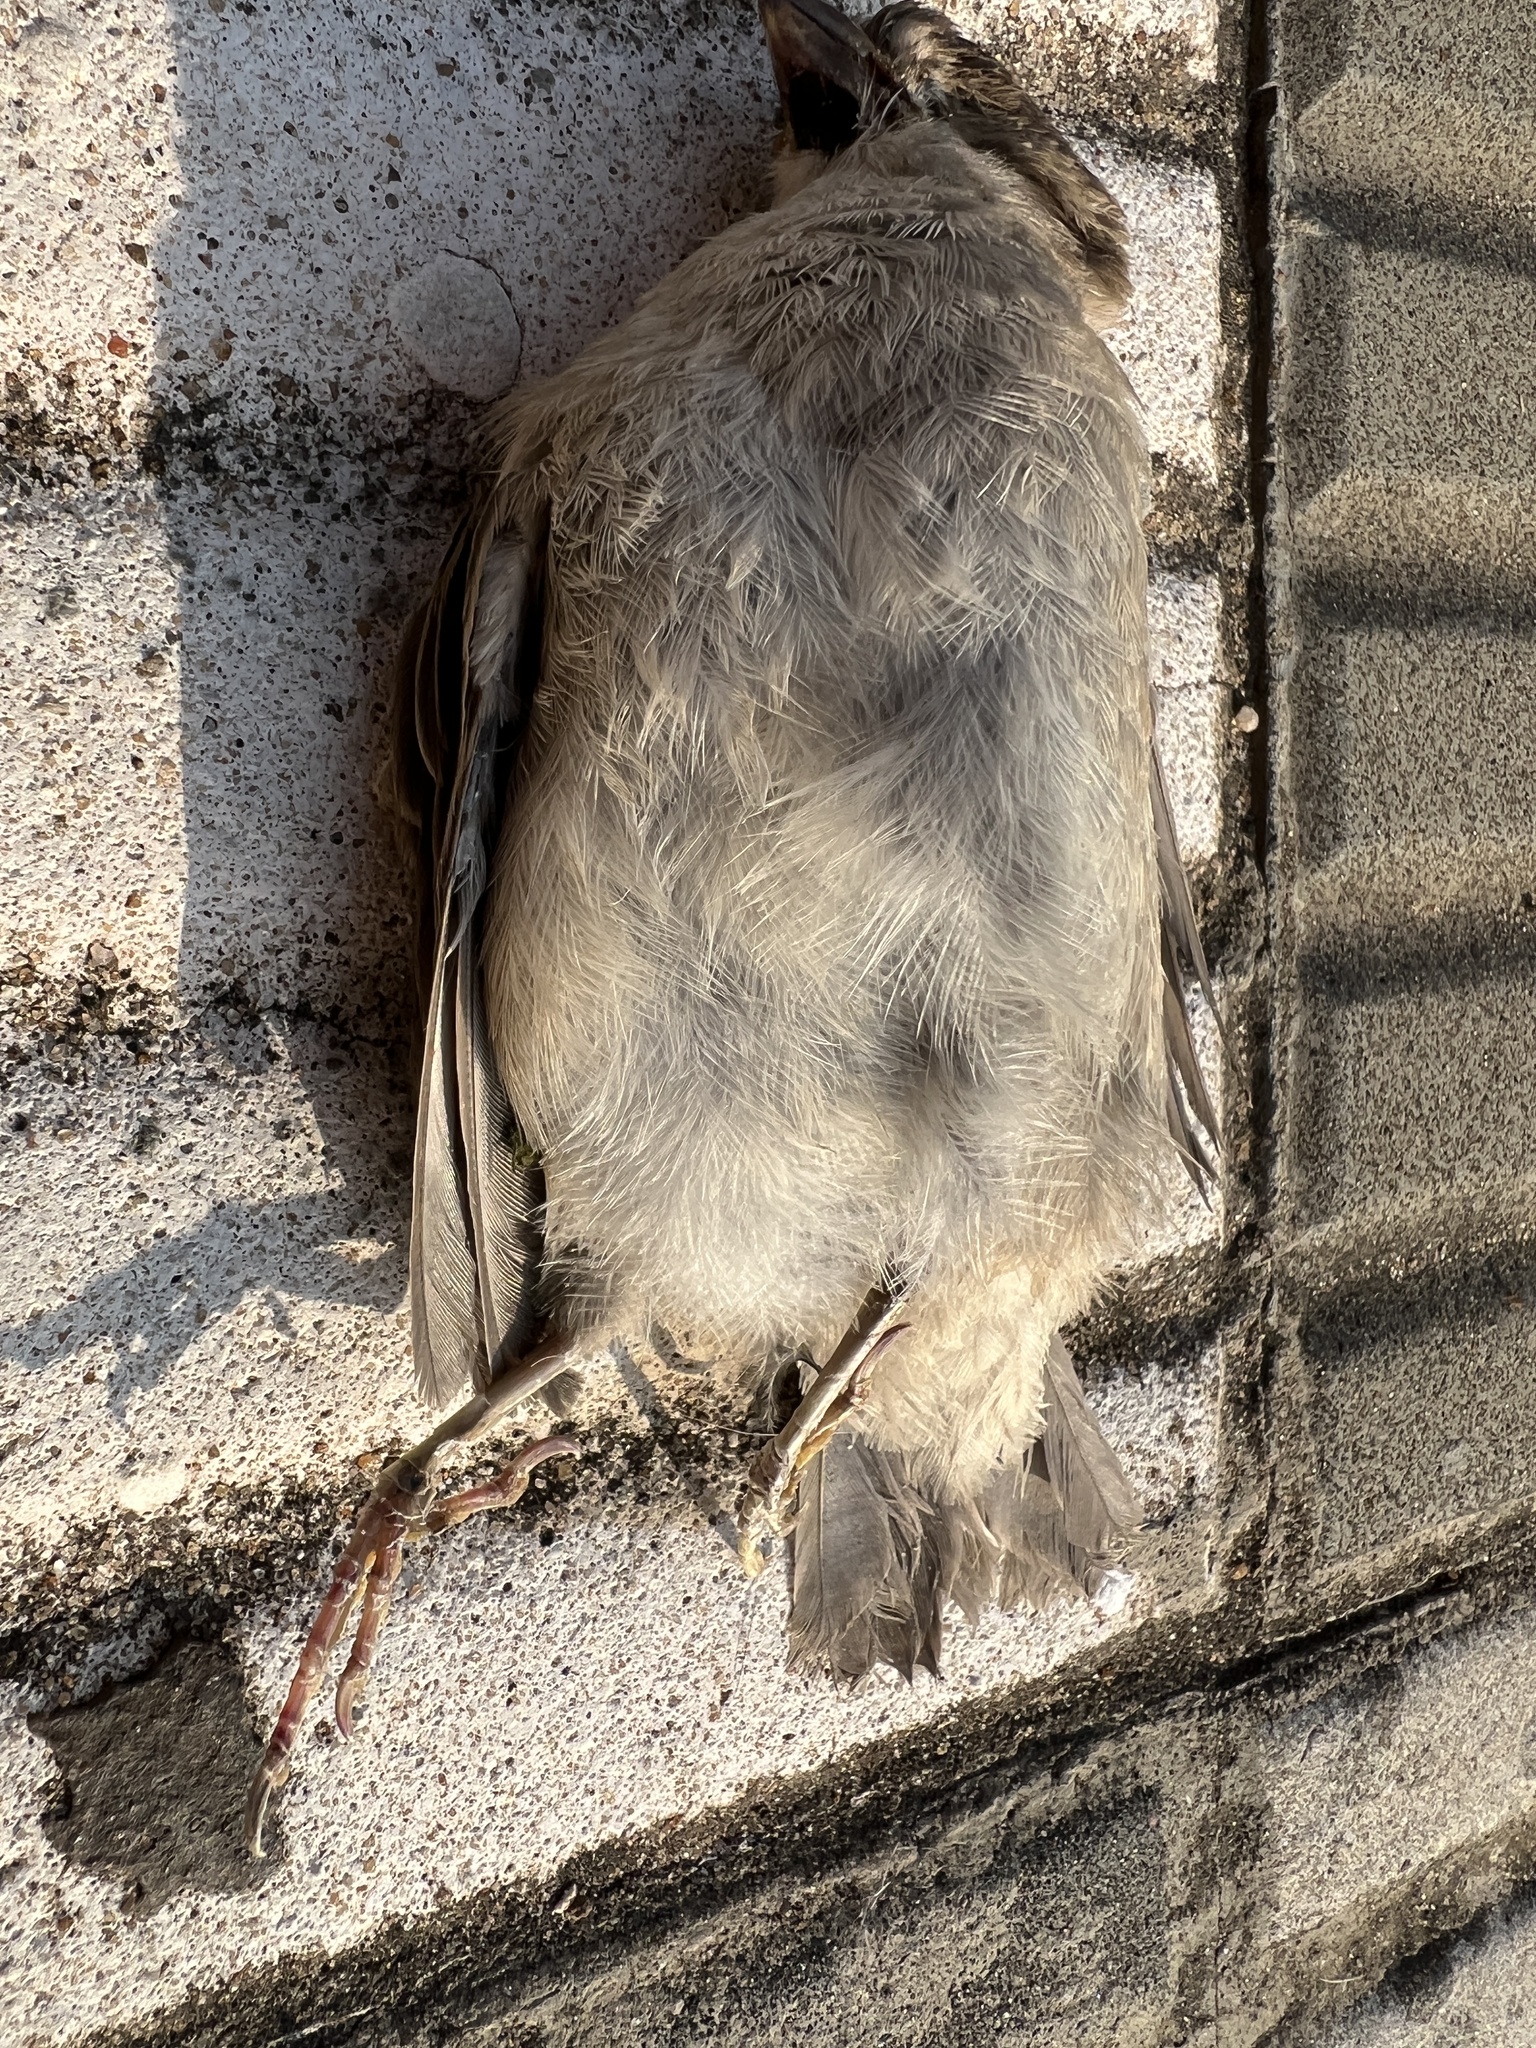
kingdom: Animalia
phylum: Chordata
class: Aves
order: Passeriformes
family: Passeridae
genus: Passer
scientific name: Passer domesticus
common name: House sparrow
